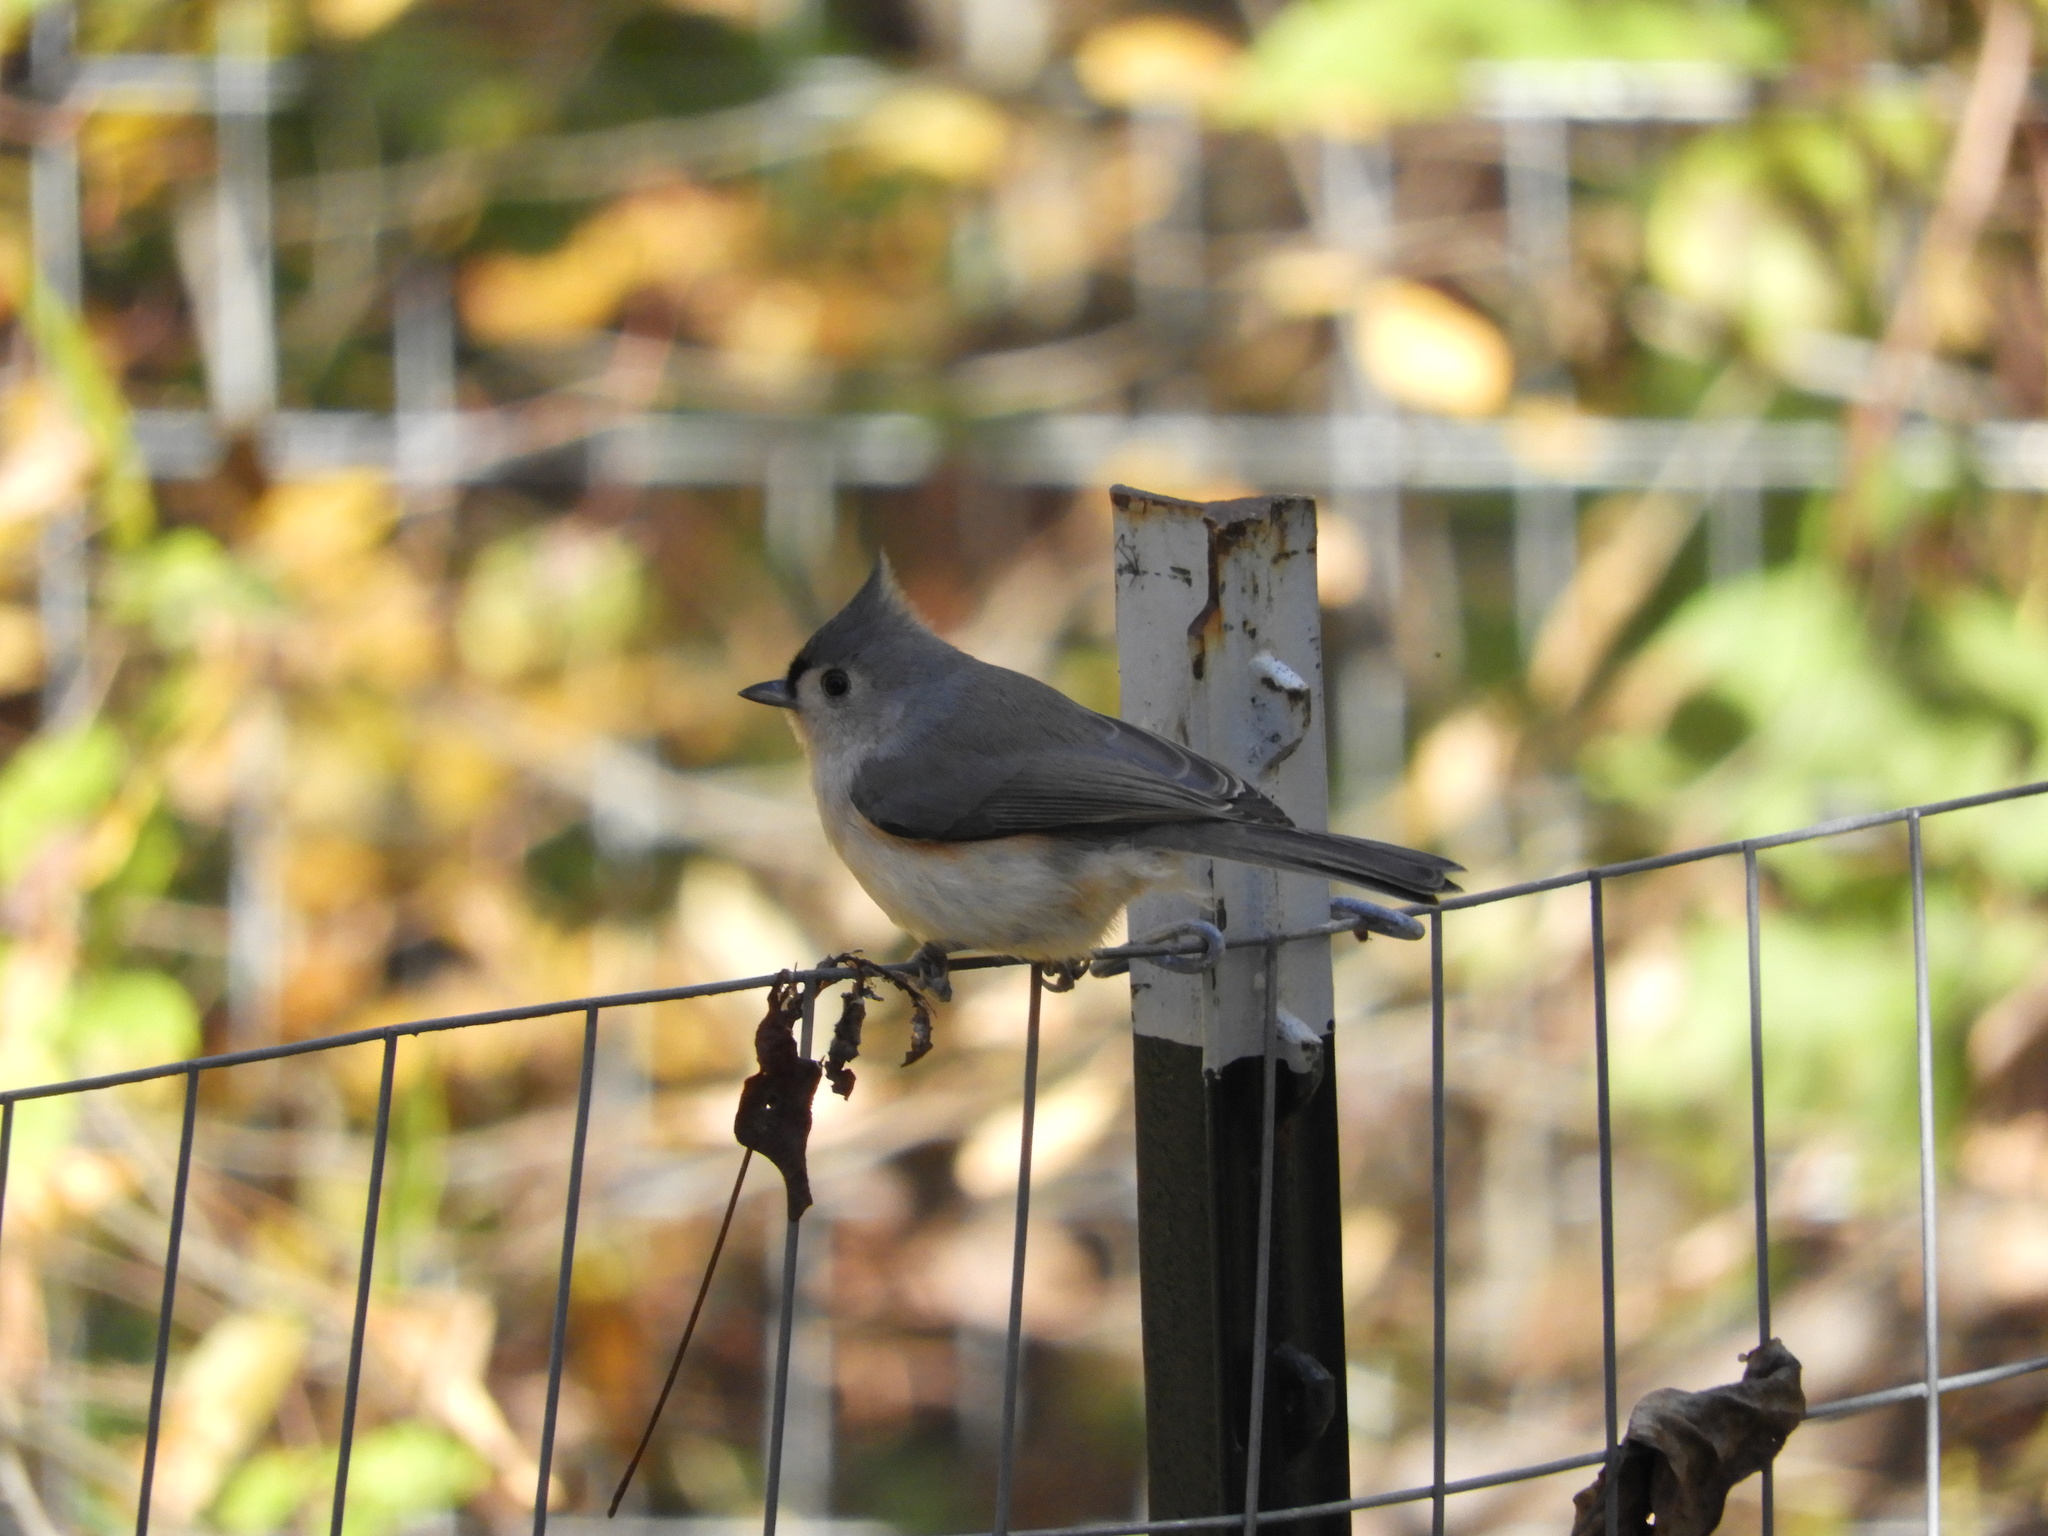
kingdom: Animalia
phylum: Chordata
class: Aves
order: Passeriformes
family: Paridae
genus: Baeolophus
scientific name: Baeolophus bicolor
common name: Tufted titmouse
